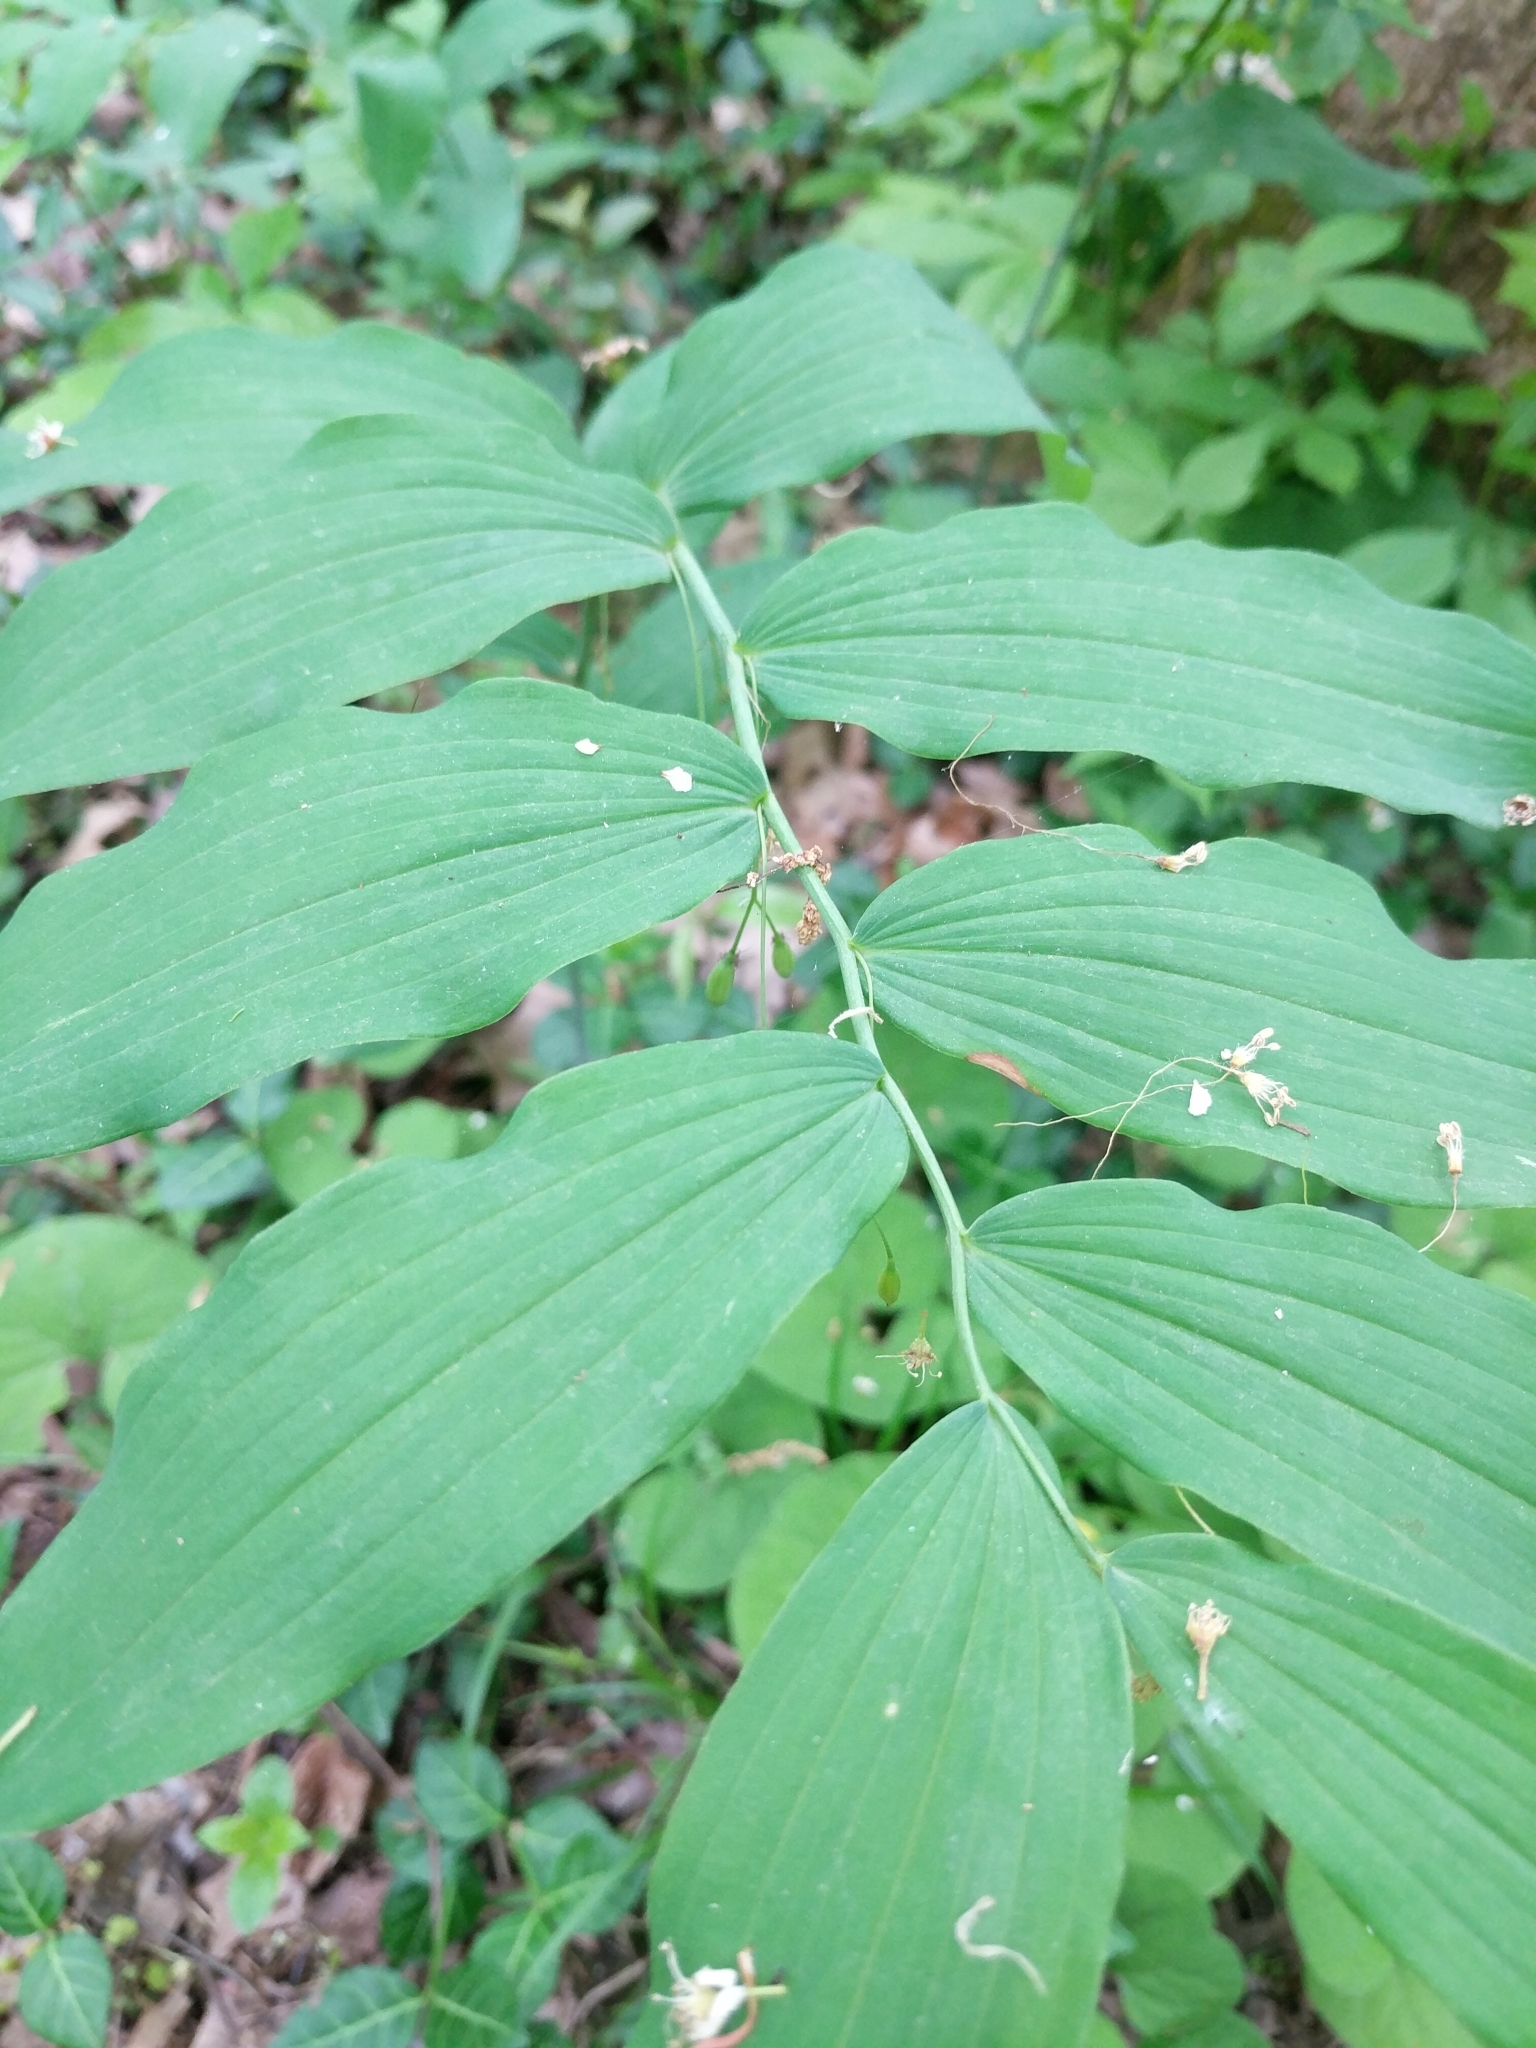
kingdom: Plantae
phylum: Tracheophyta
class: Liliopsida
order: Asparagales
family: Asparagaceae
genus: Polygonatum
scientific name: Polygonatum biflorum
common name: American solomon's-seal
